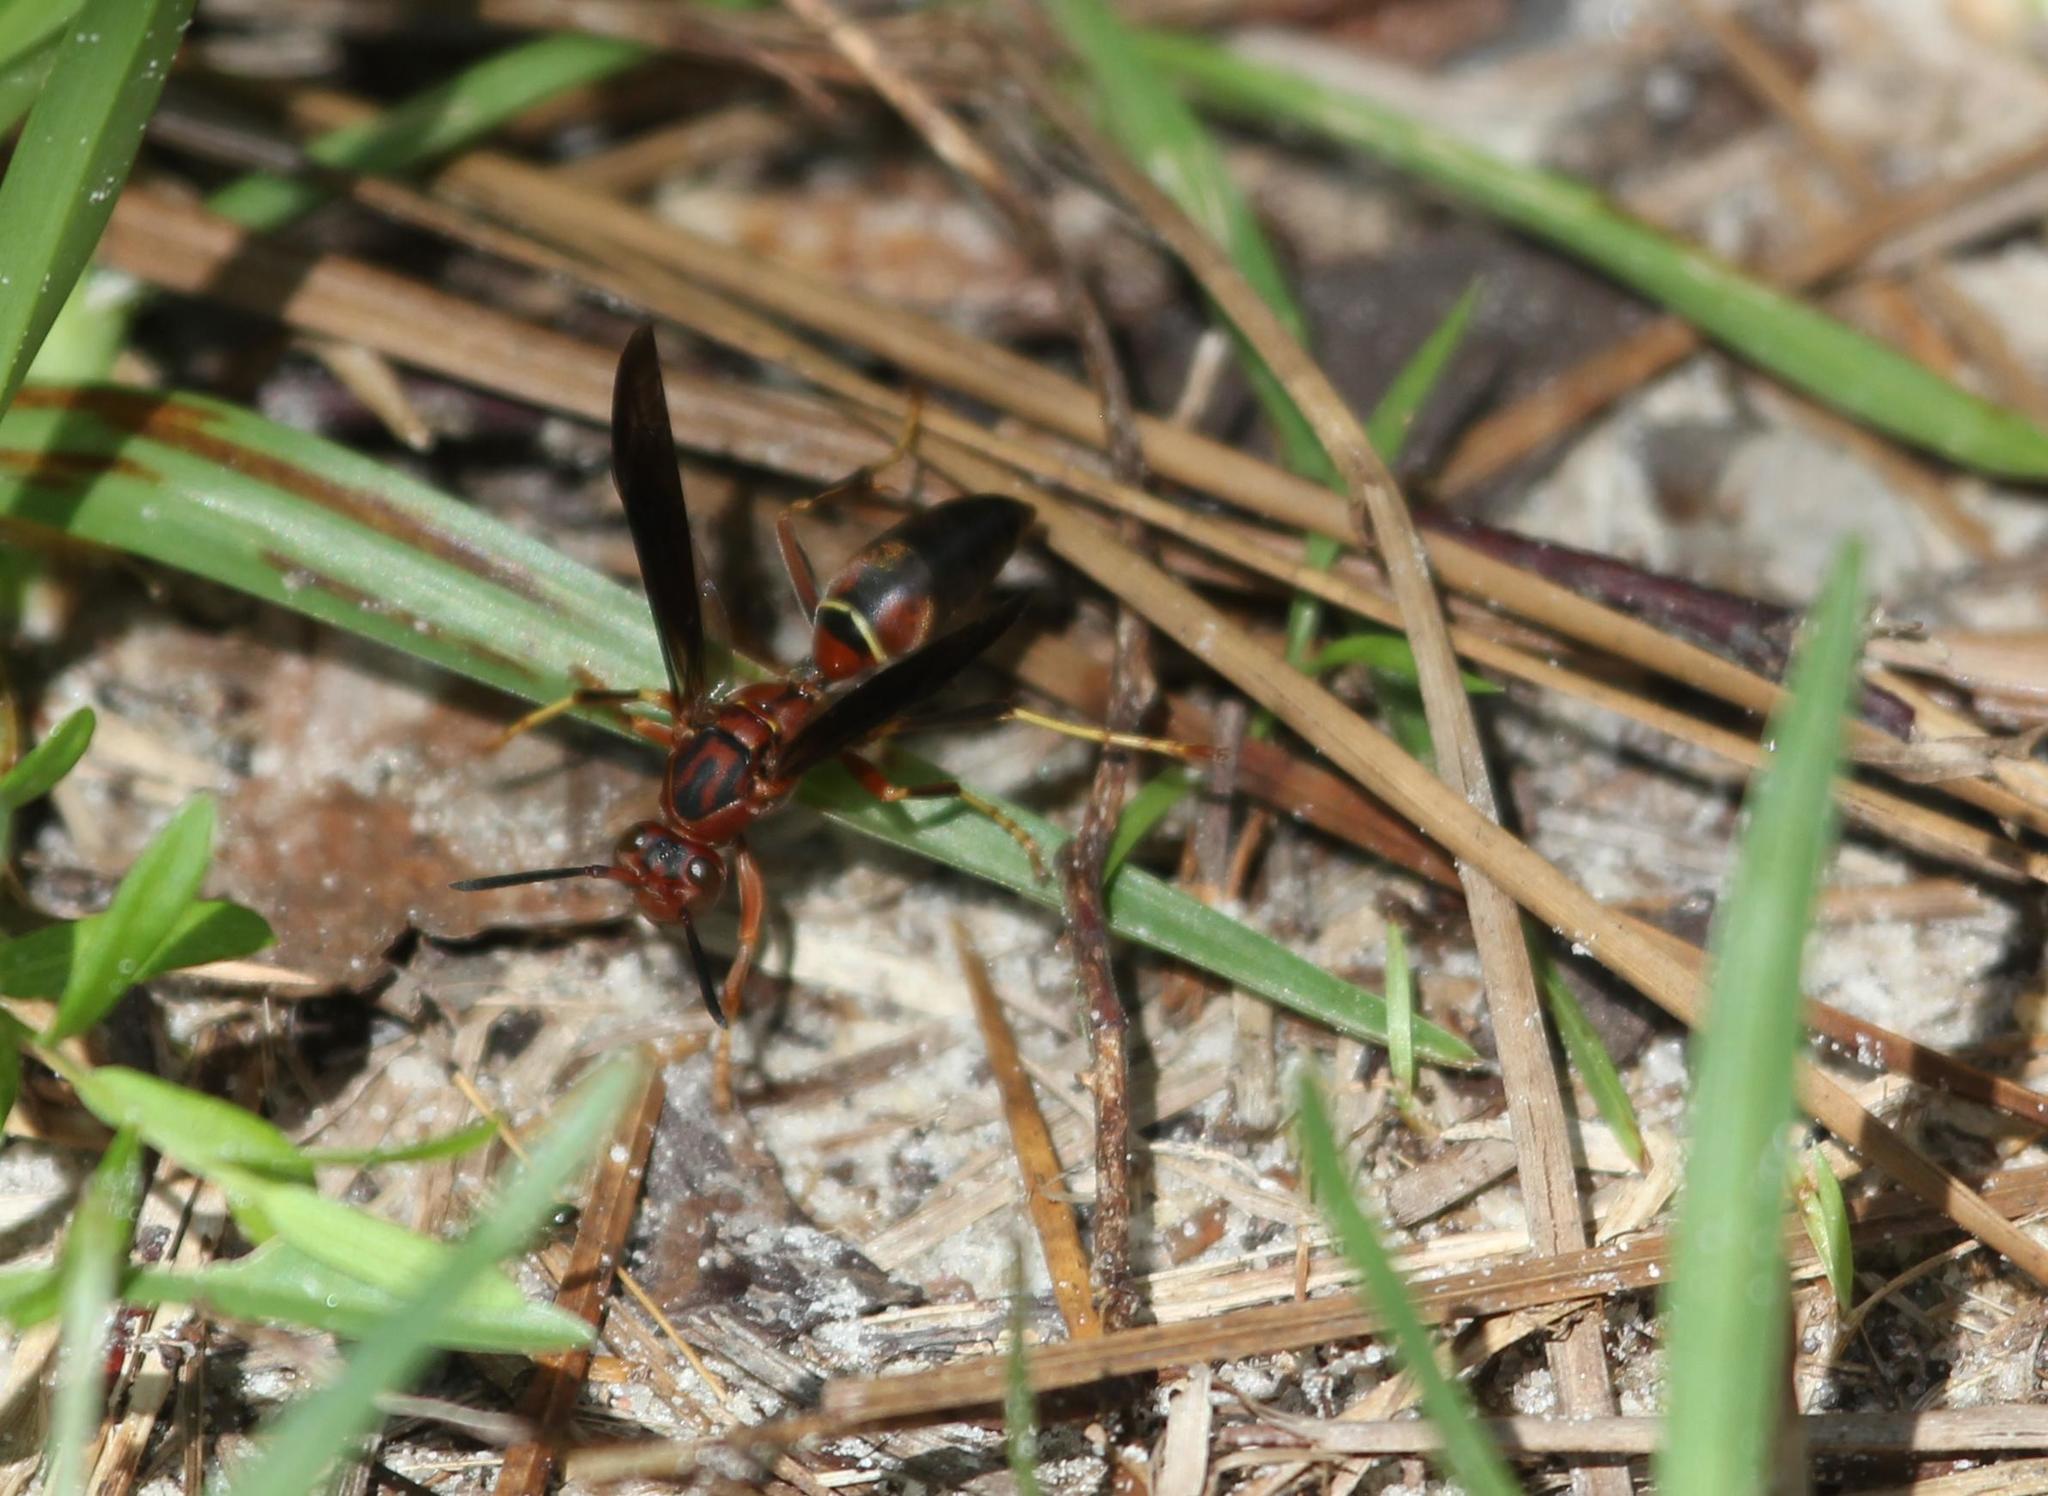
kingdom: Animalia
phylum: Arthropoda
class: Insecta
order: Hymenoptera
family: Eumenidae
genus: Polistes
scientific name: Polistes fuscatus
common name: Dark paper wasp
